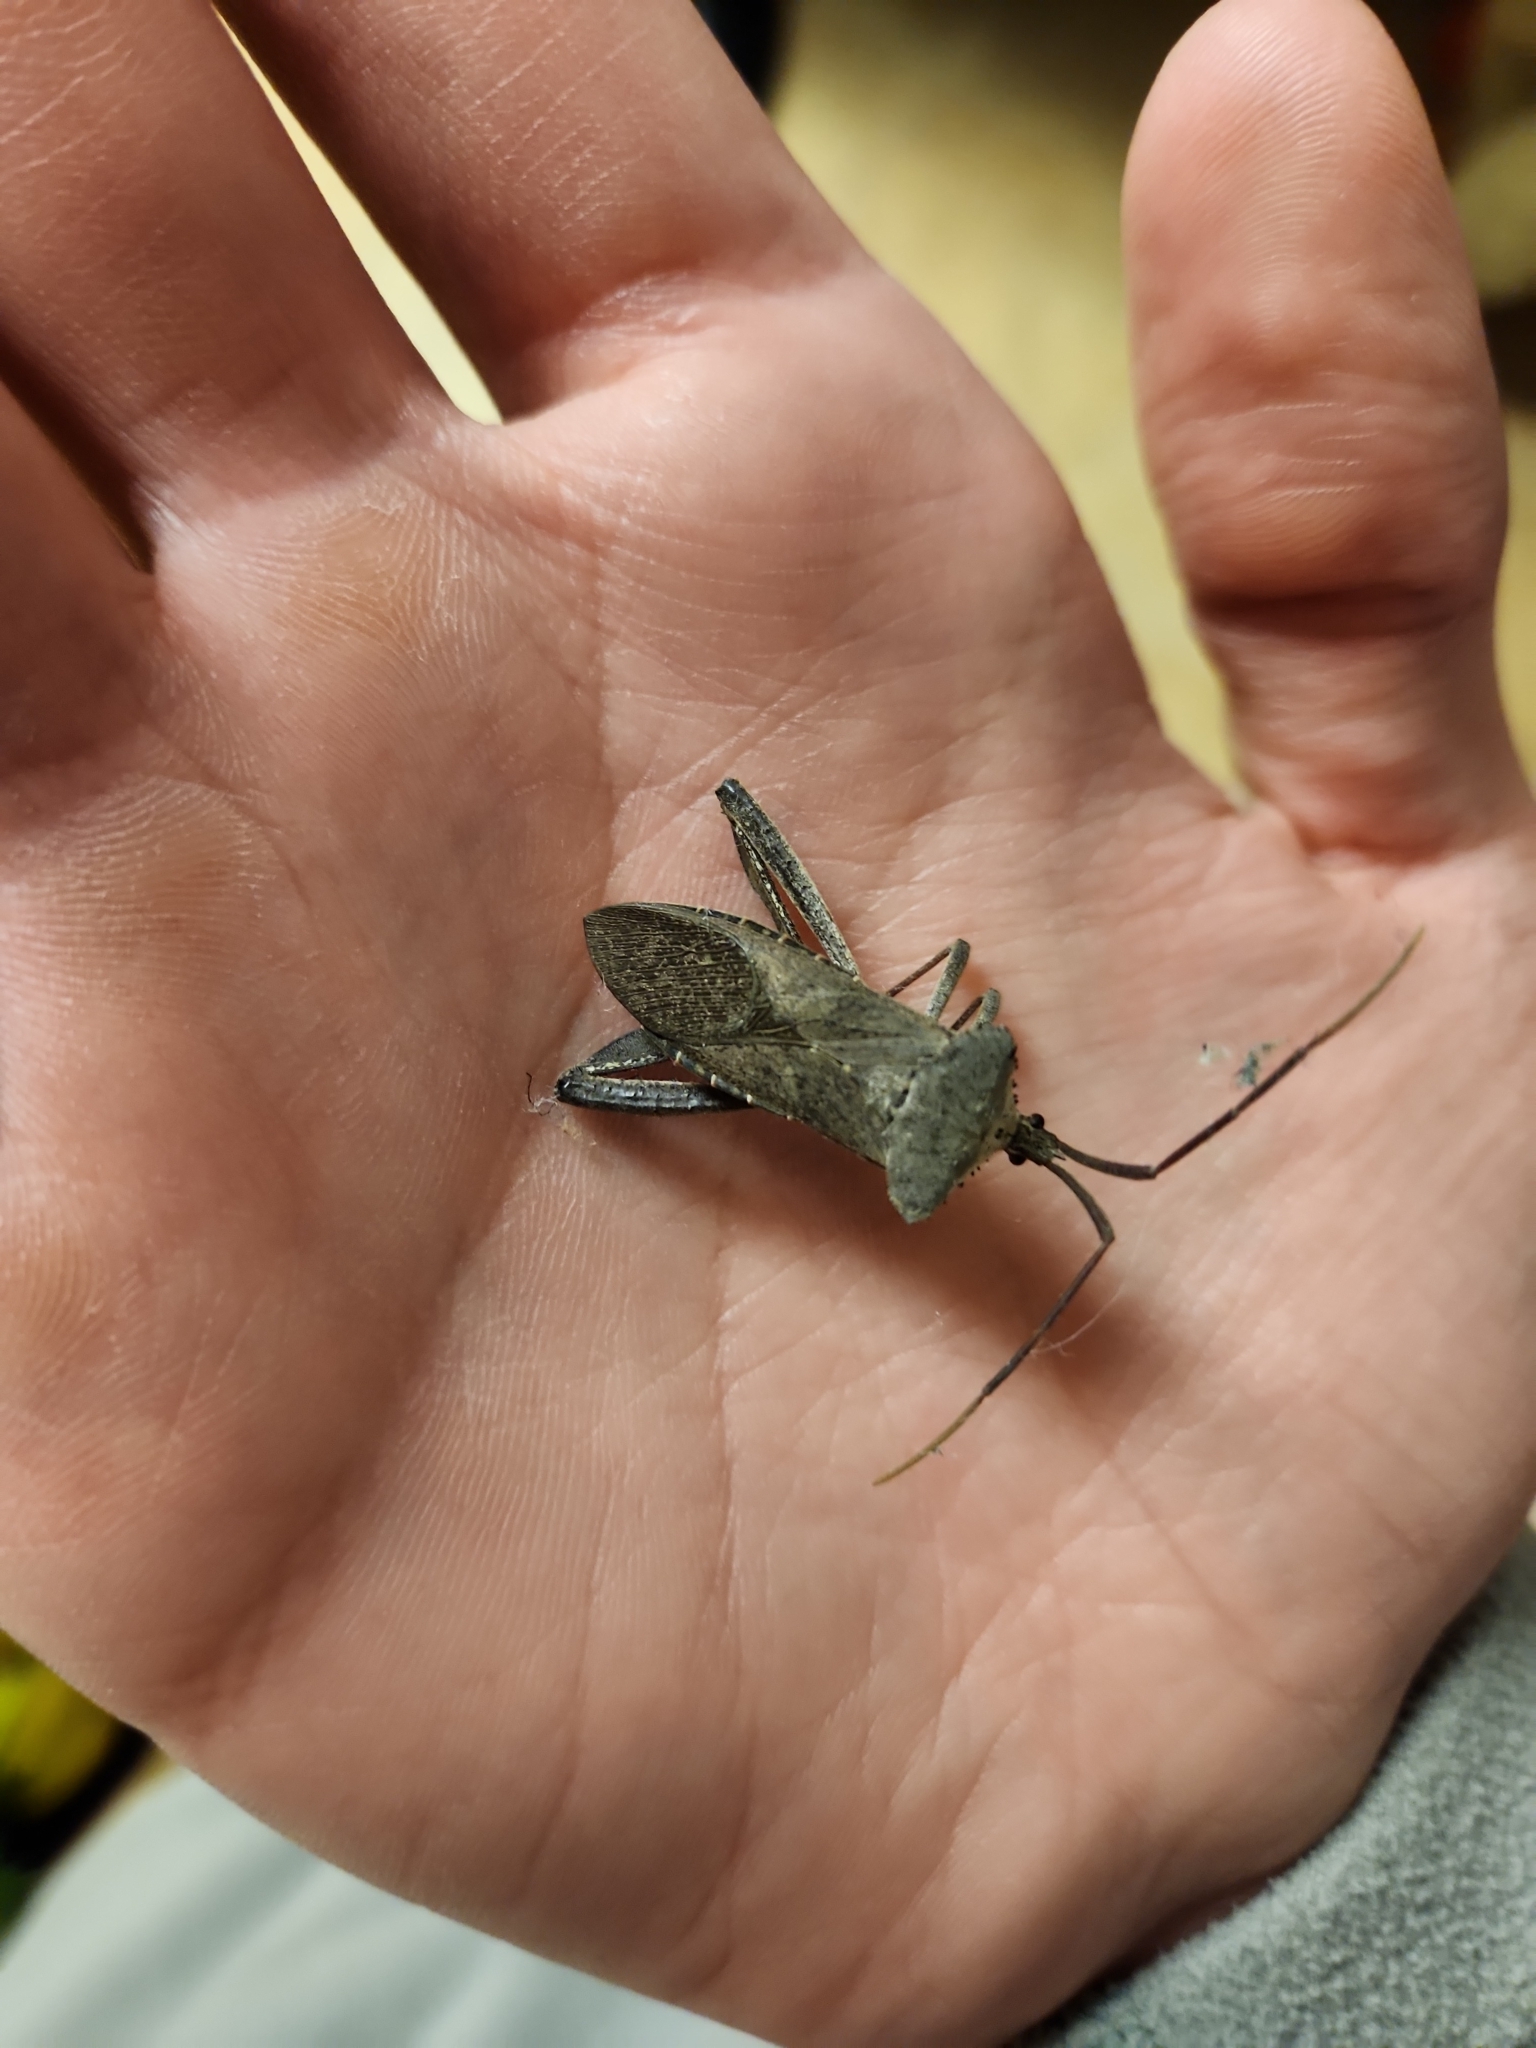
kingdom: Animalia
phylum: Arthropoda
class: Insecta
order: Hemiptera
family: Coreidae
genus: Acanthocephala
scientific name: Acanthocephala declivis
